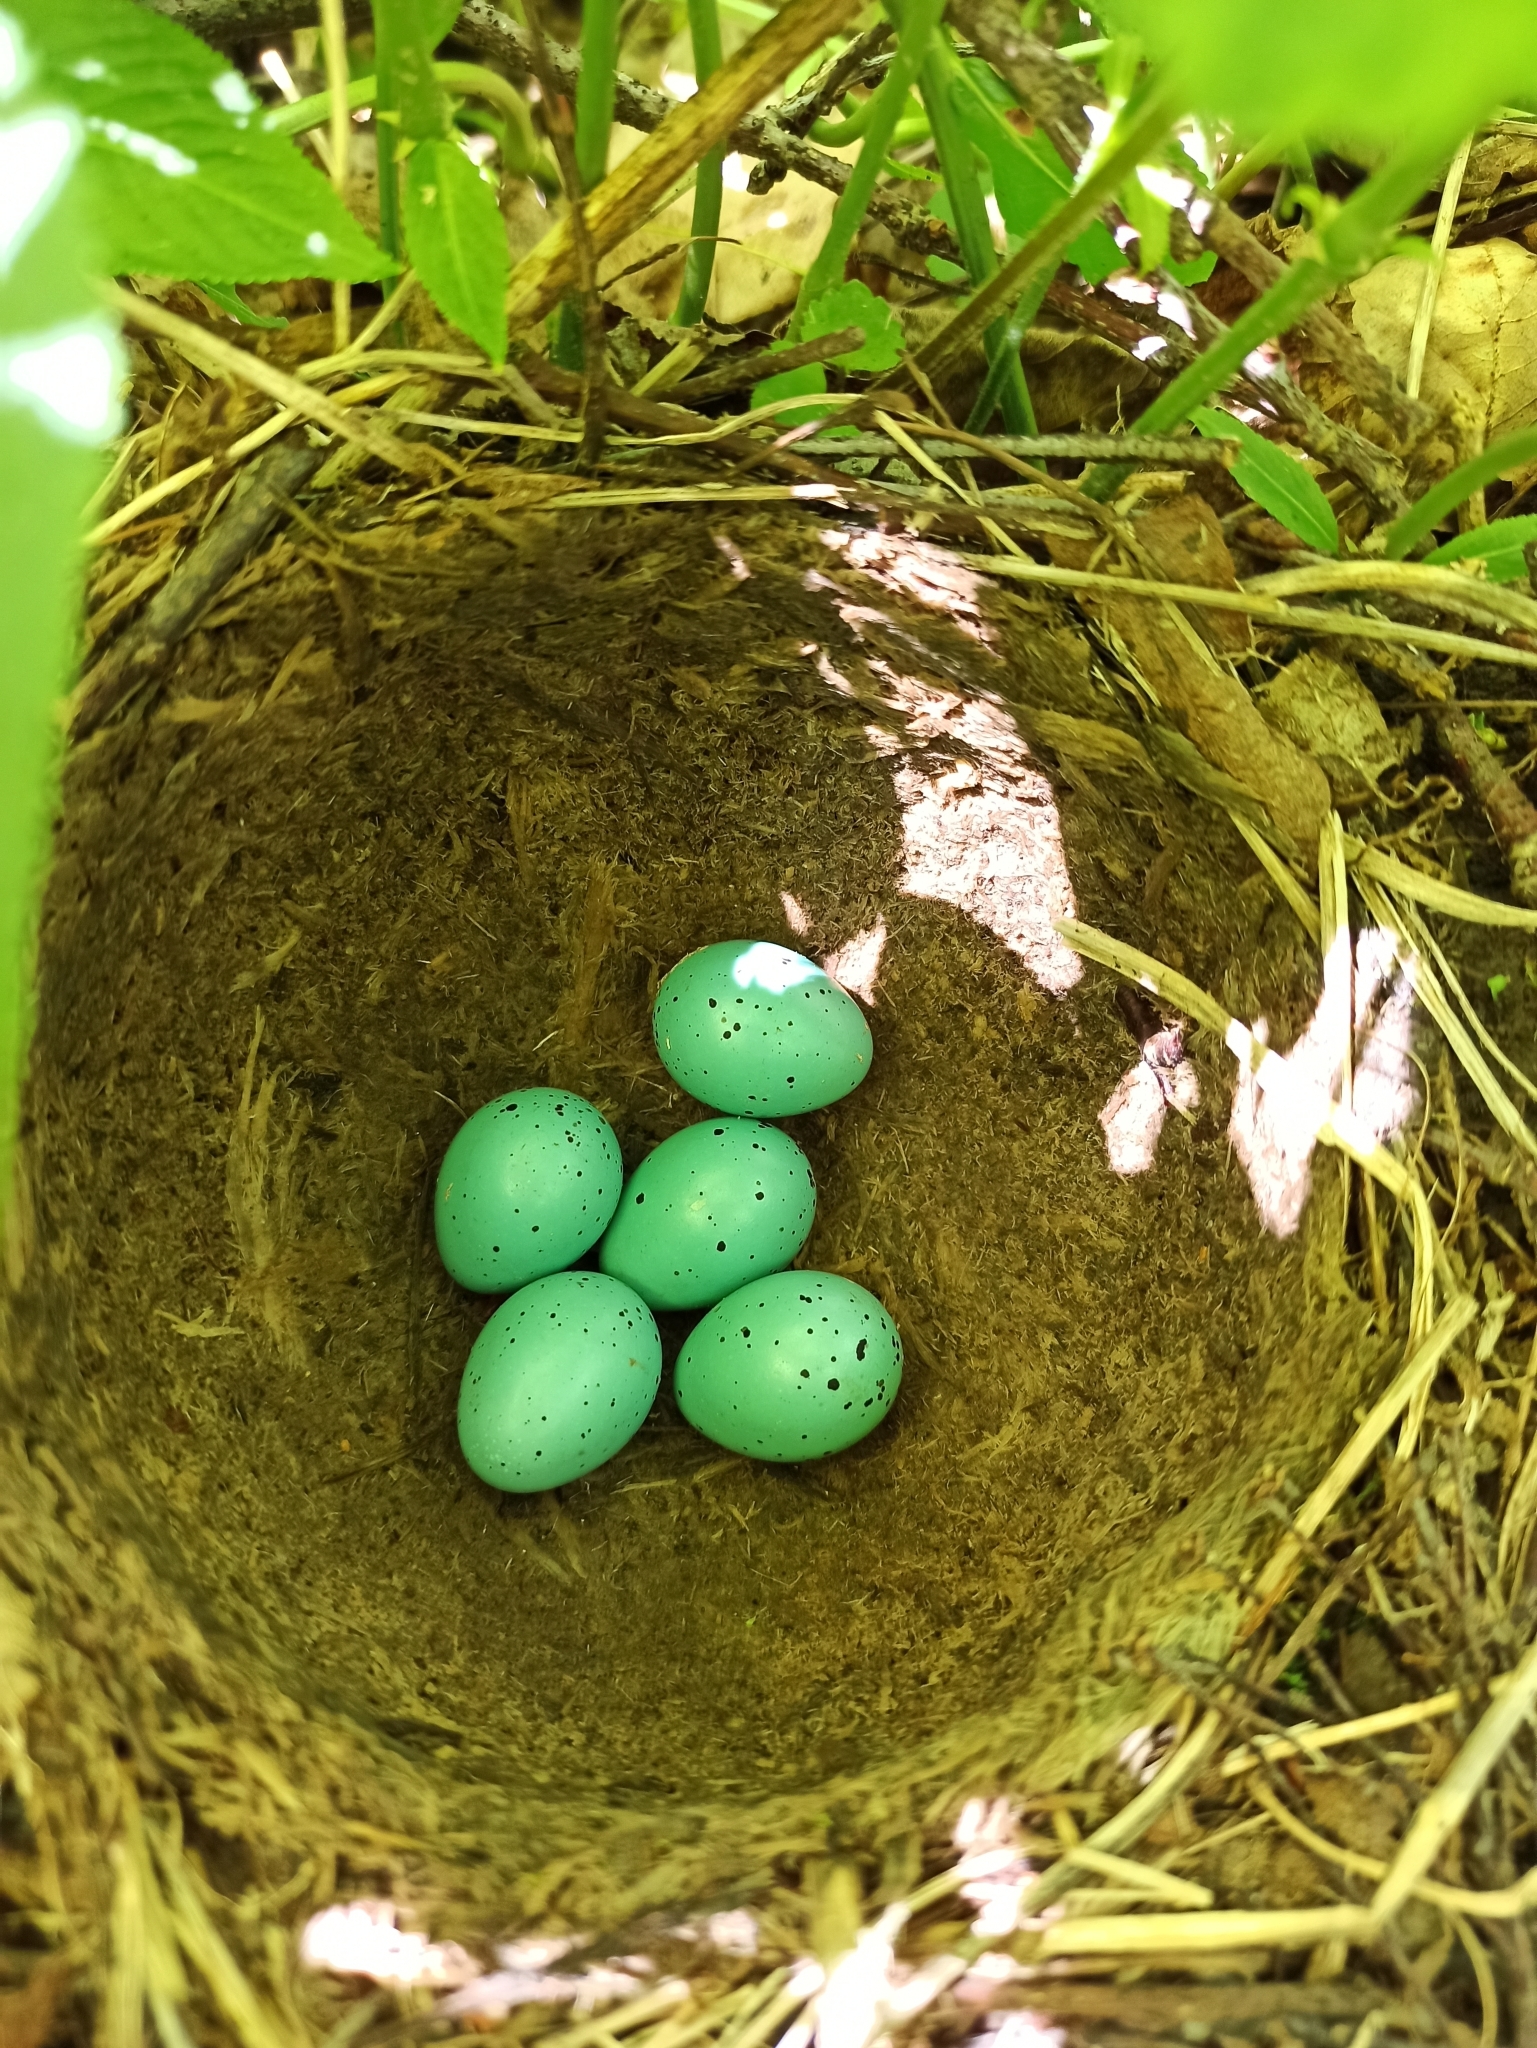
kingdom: Animalia
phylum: Chordata
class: Aves
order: Passeriformes
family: Turdidae
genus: Turdus
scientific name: Turdus philomelos
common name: Song thrush
